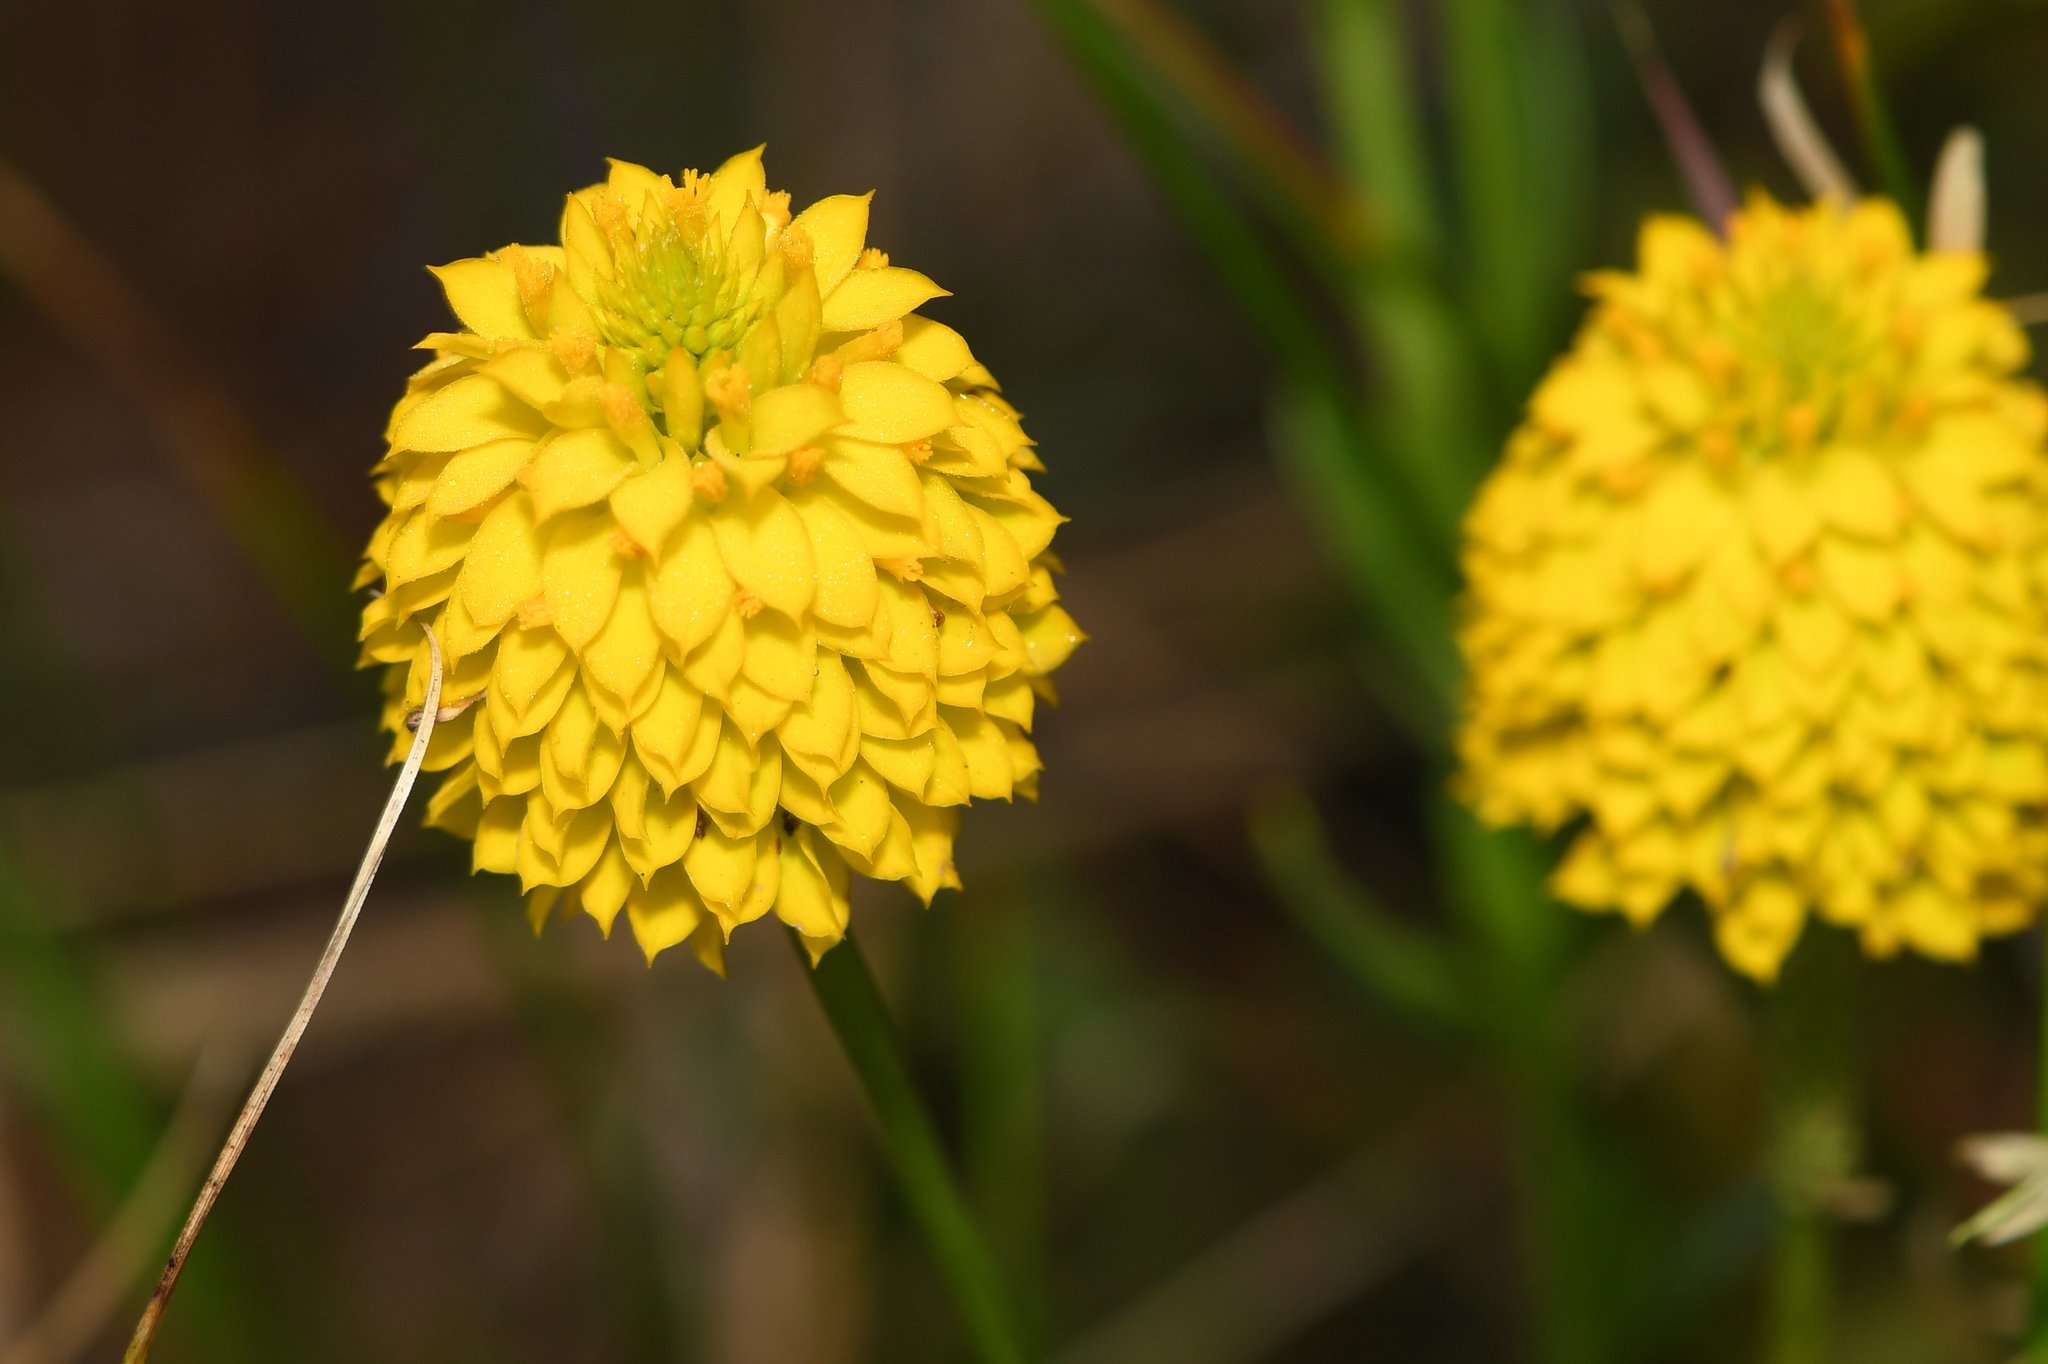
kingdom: Plantae
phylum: Tracheophyta
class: Magnoliopsida
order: Fabales
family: Polygalaceae
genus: Polygala
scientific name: Polygala rugelii
